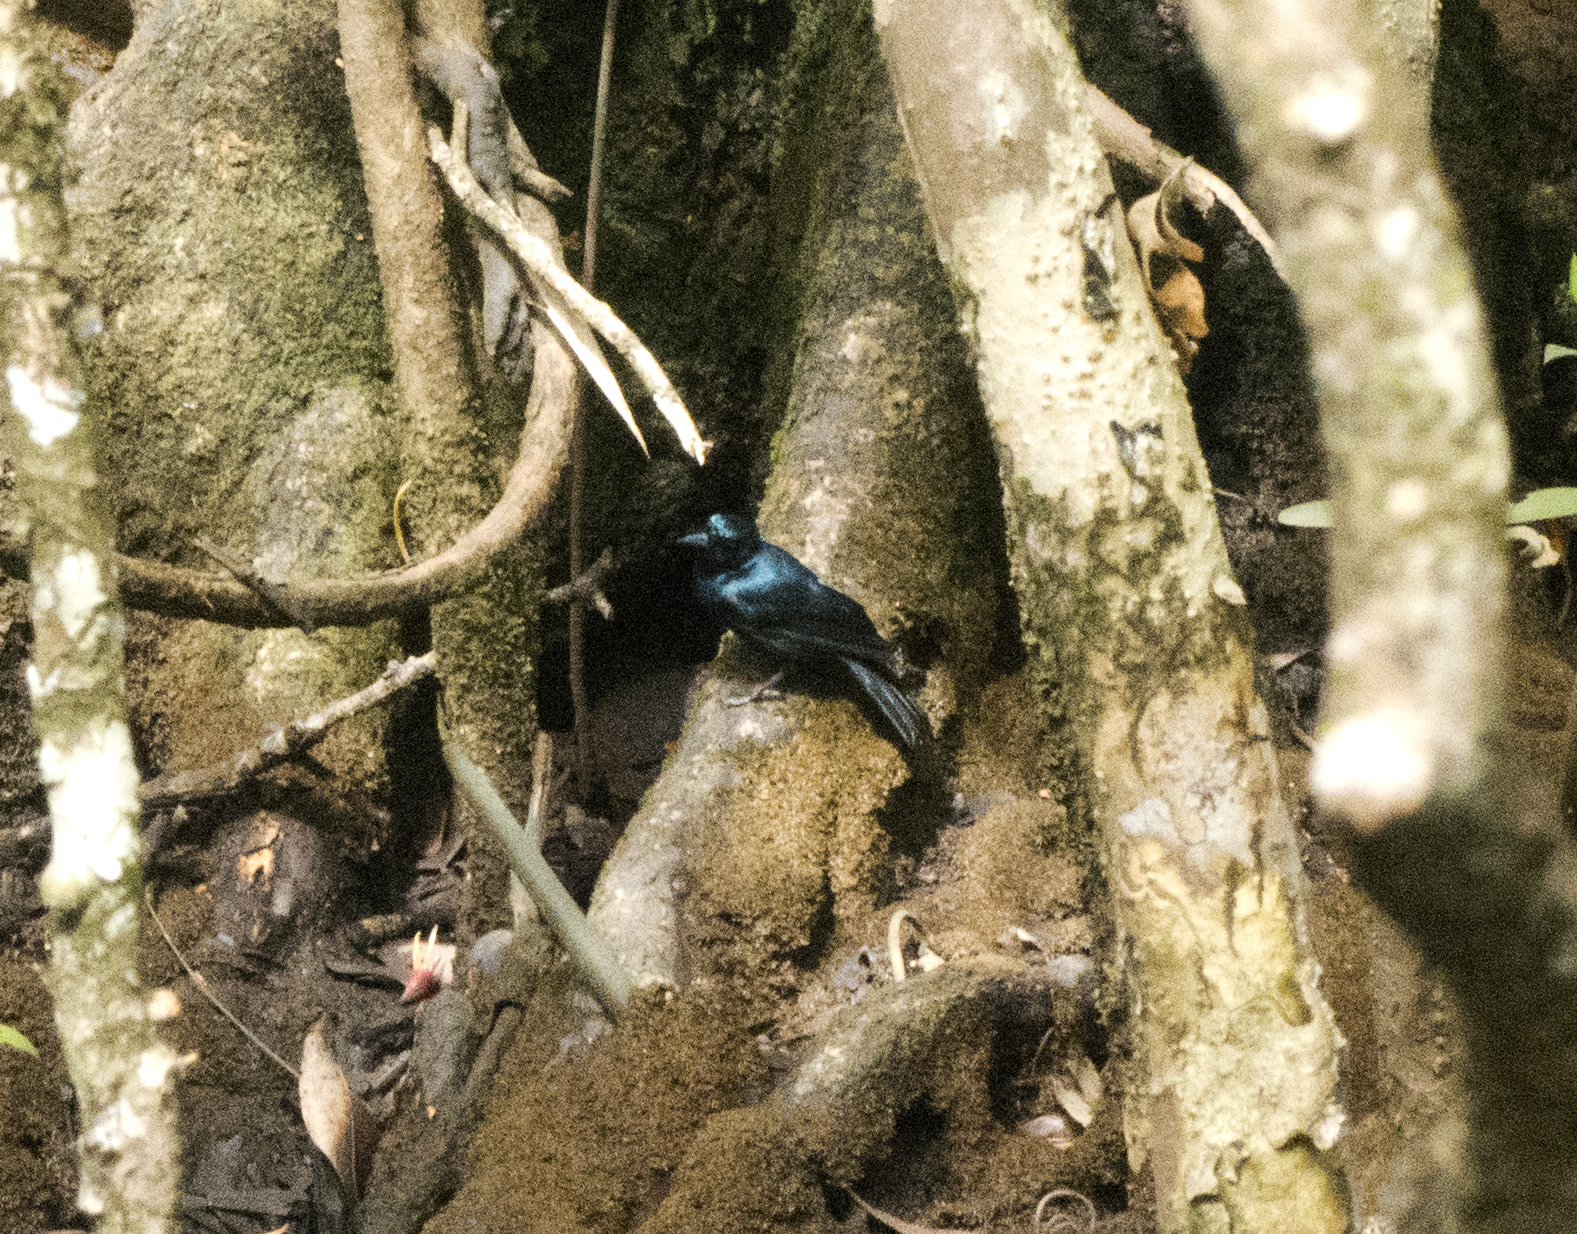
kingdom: Animalia
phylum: Chordata
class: Aves
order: Passeriformes
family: Monarchidae
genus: Myiagra
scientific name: Myiagra alecto
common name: Shining flycatcher
